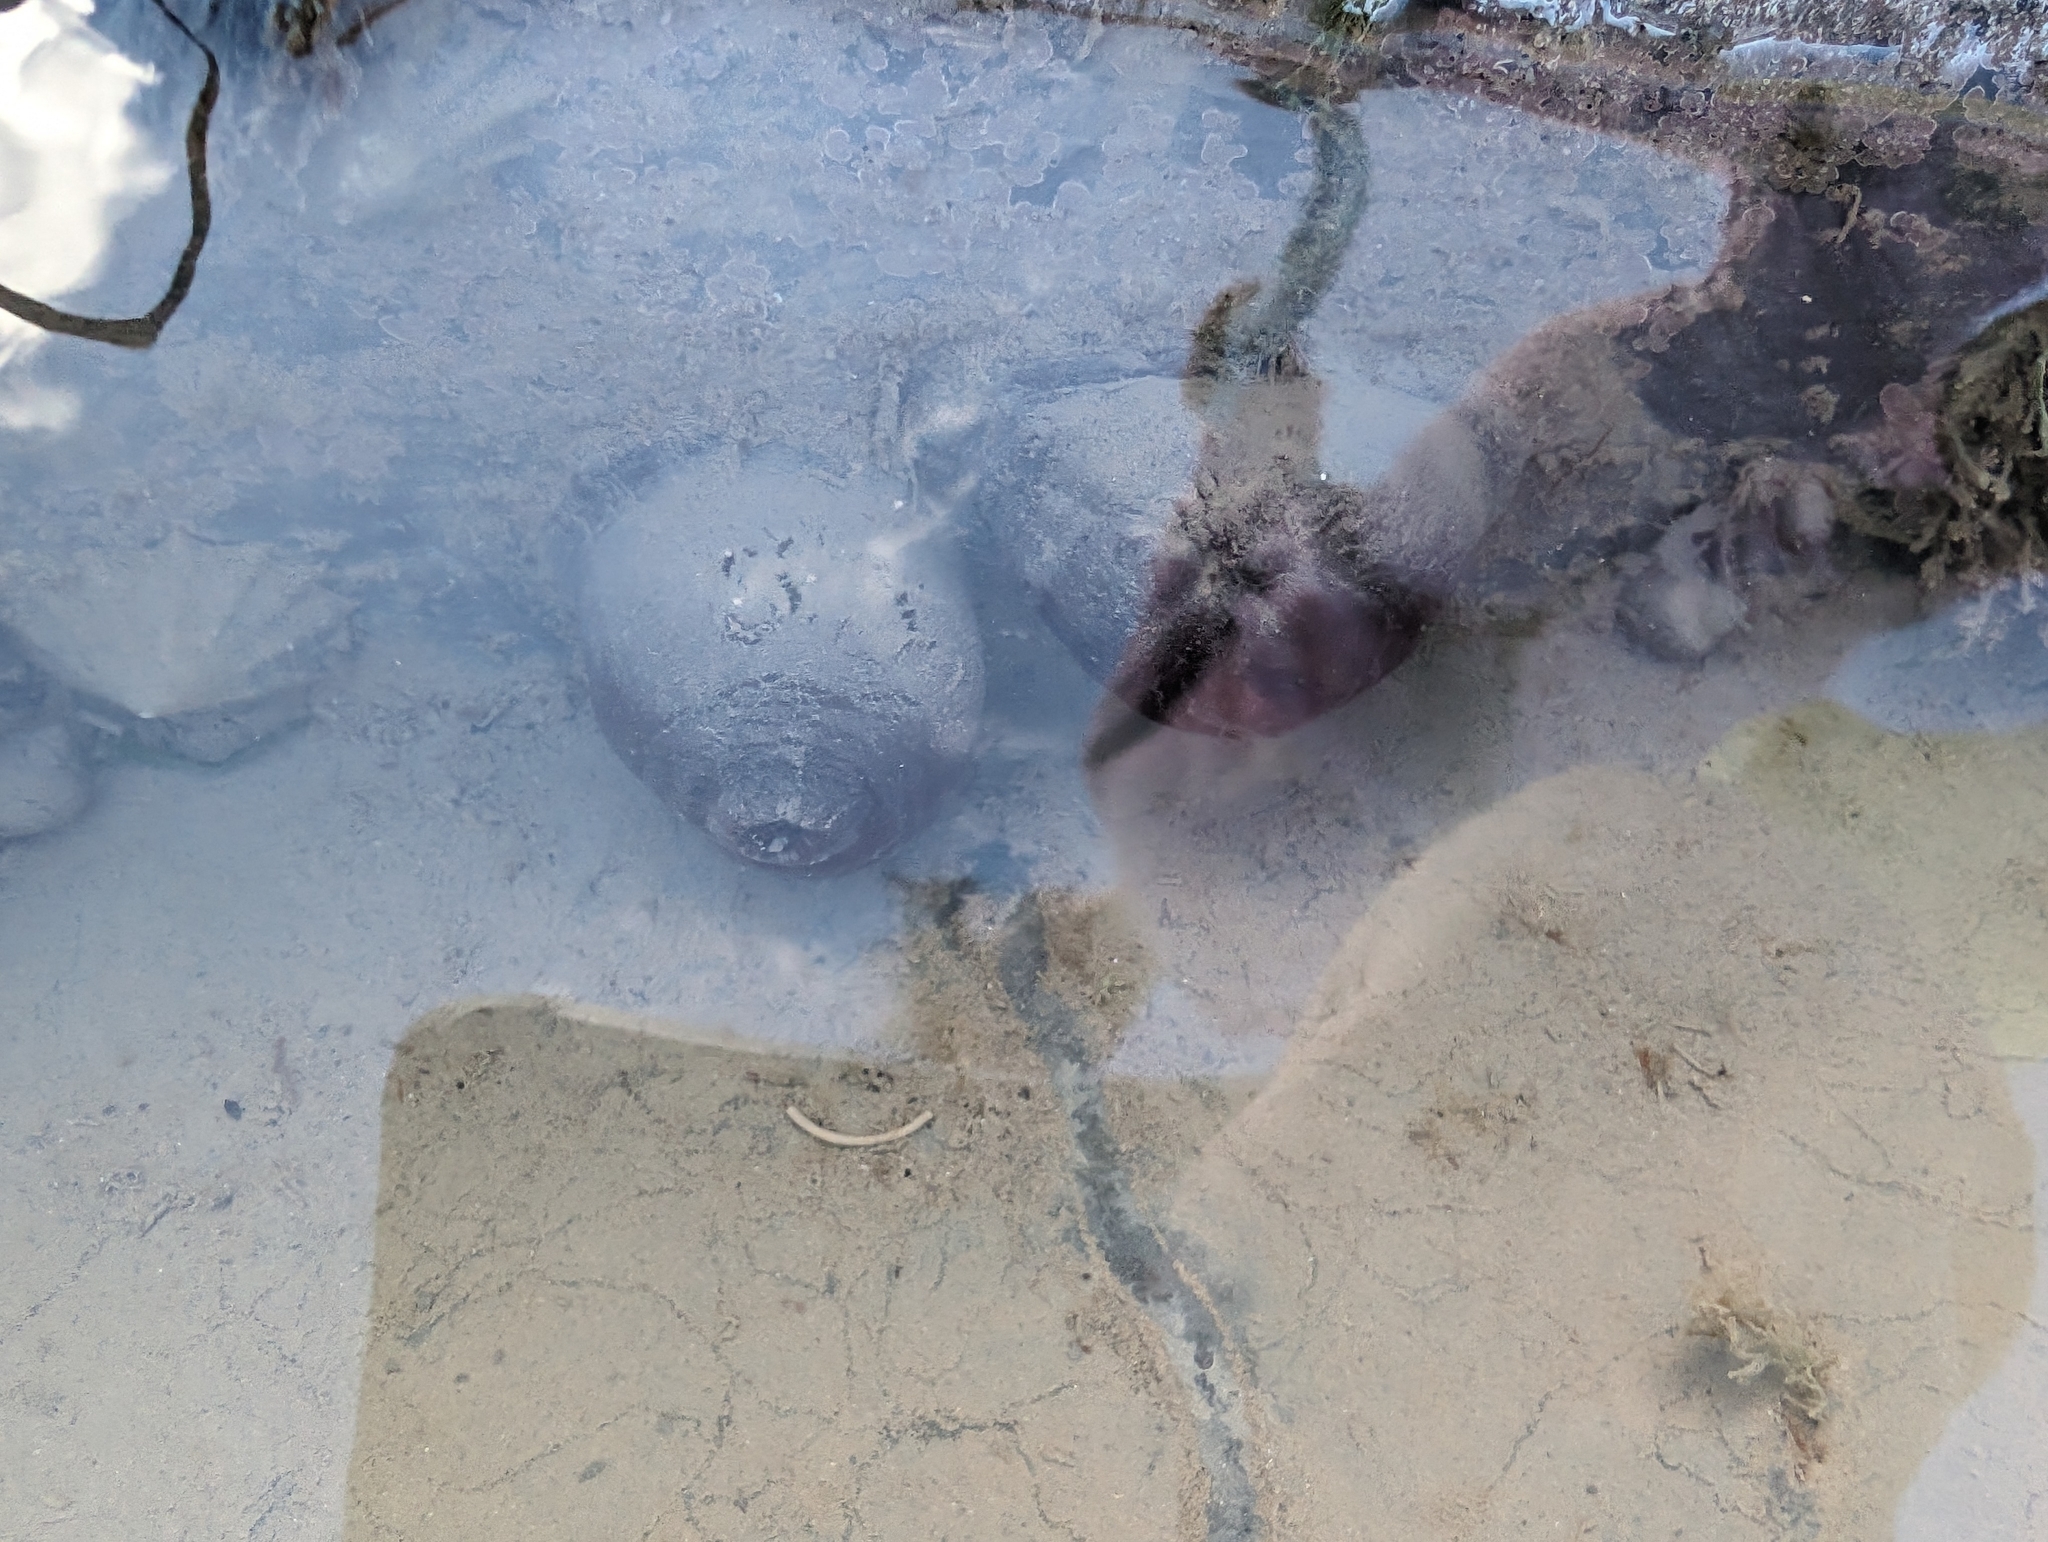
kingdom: Animalia
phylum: Cnidaria
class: Anthozoa
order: Actiniaria
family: Actiniidae
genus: Actinia
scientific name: Actinia equina
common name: Beadlet anemone
